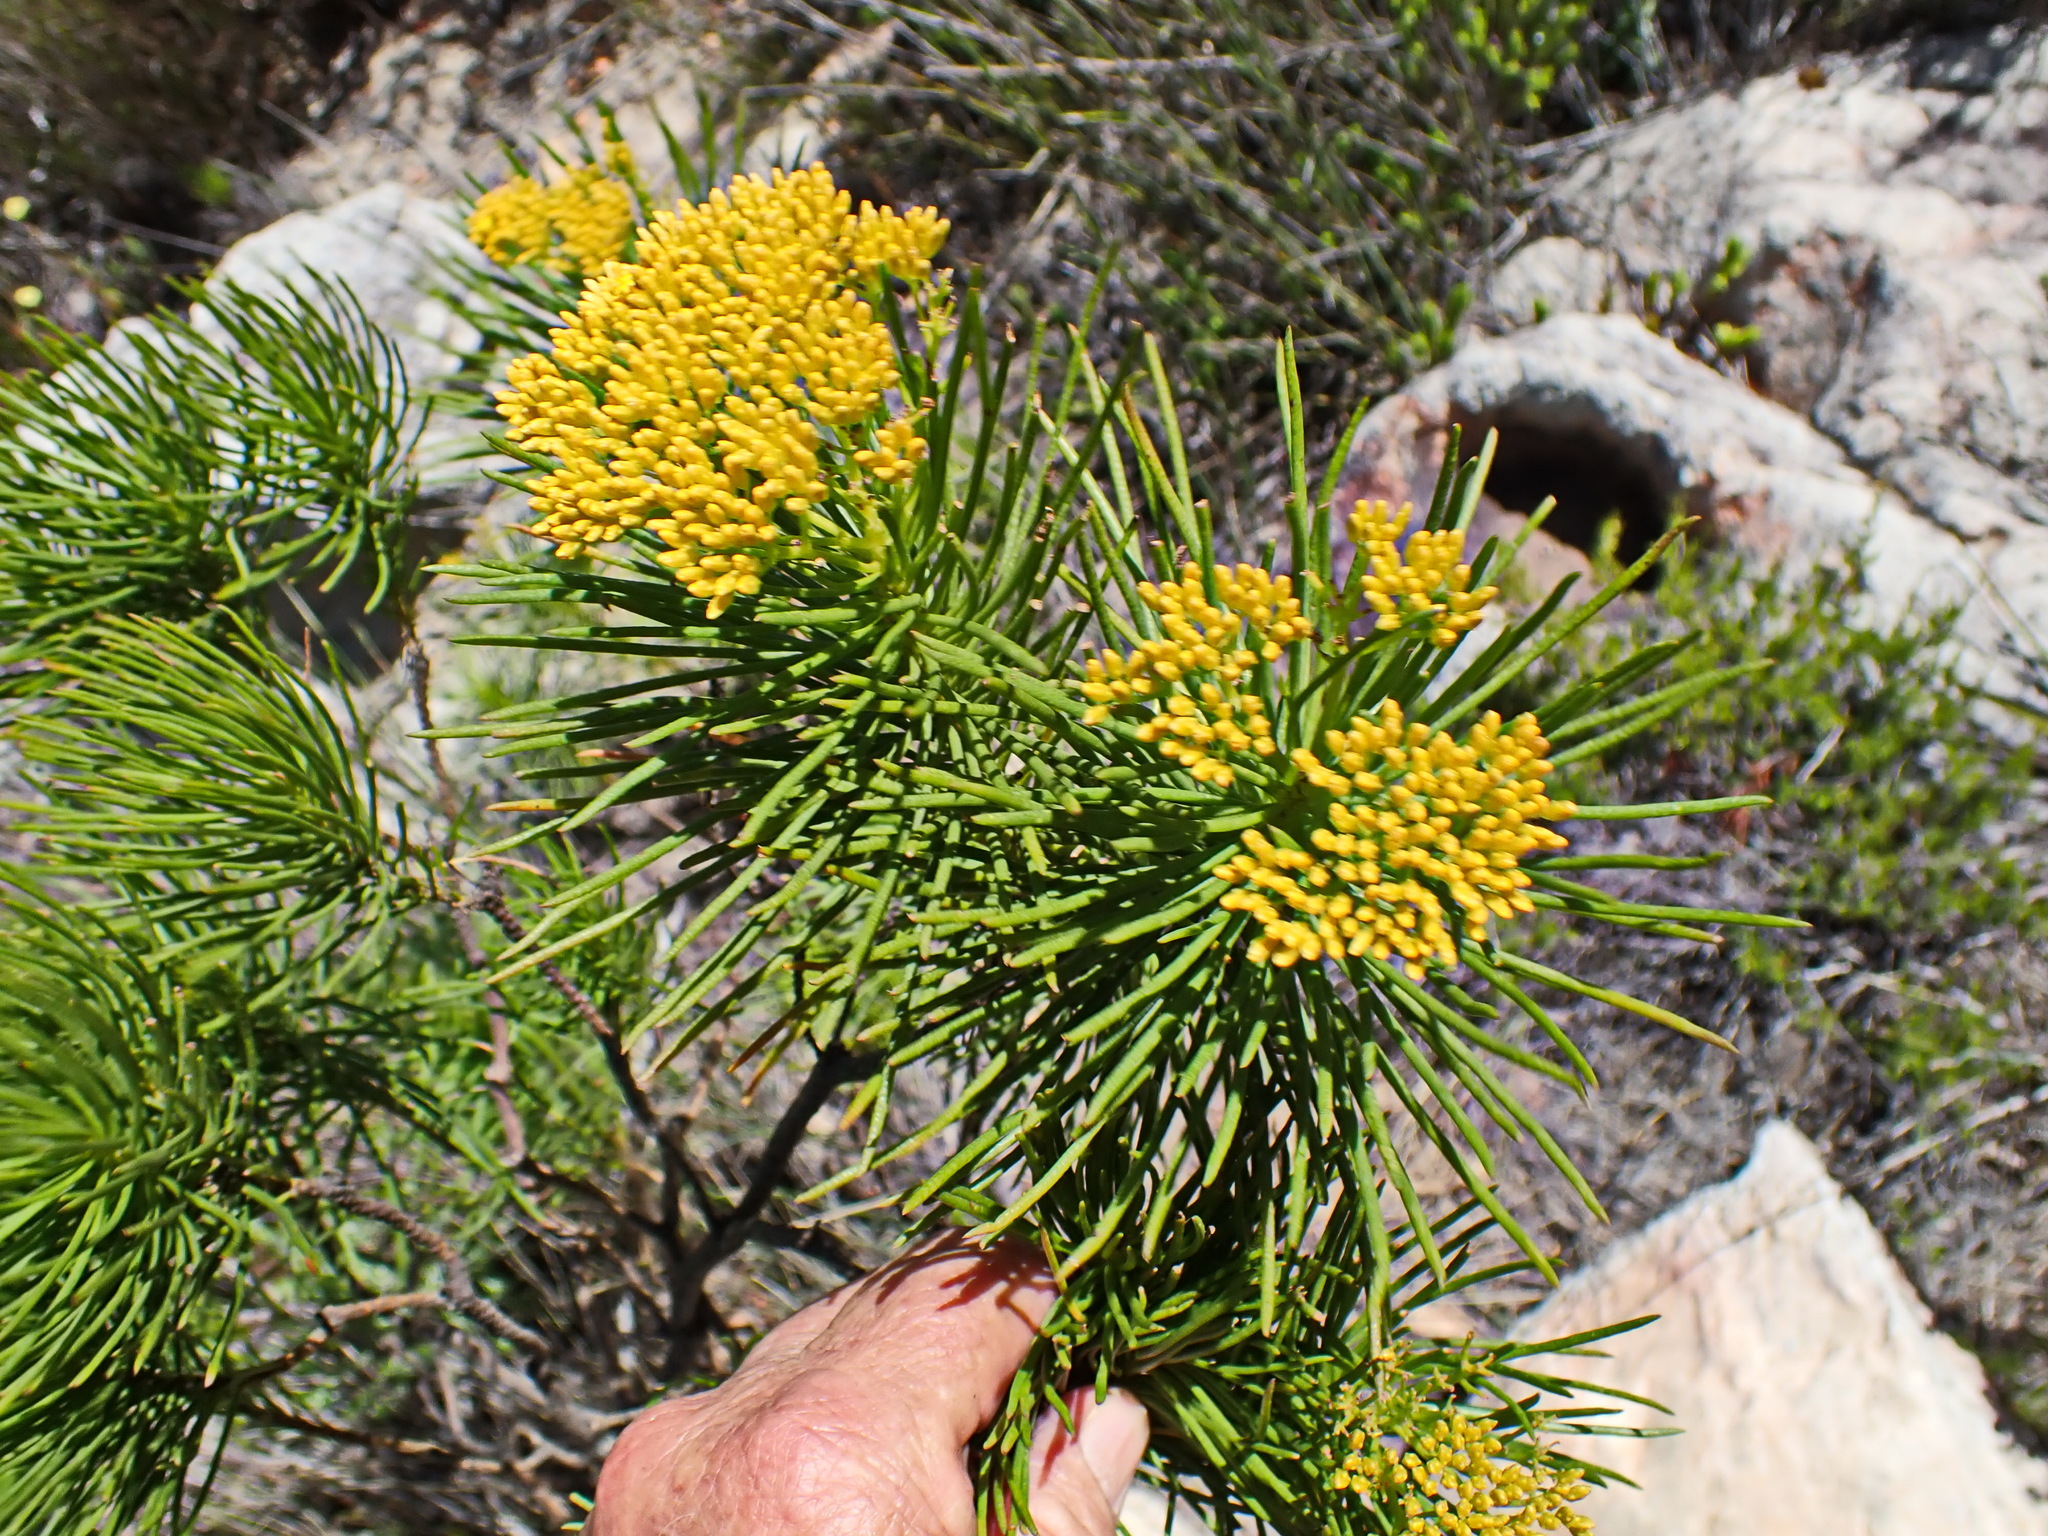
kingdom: Plantae
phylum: Tracheophyta
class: Magnoliopsida
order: Asterales
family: Asteraceae
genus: Hymenolepis
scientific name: Hymenolepis indivisa
